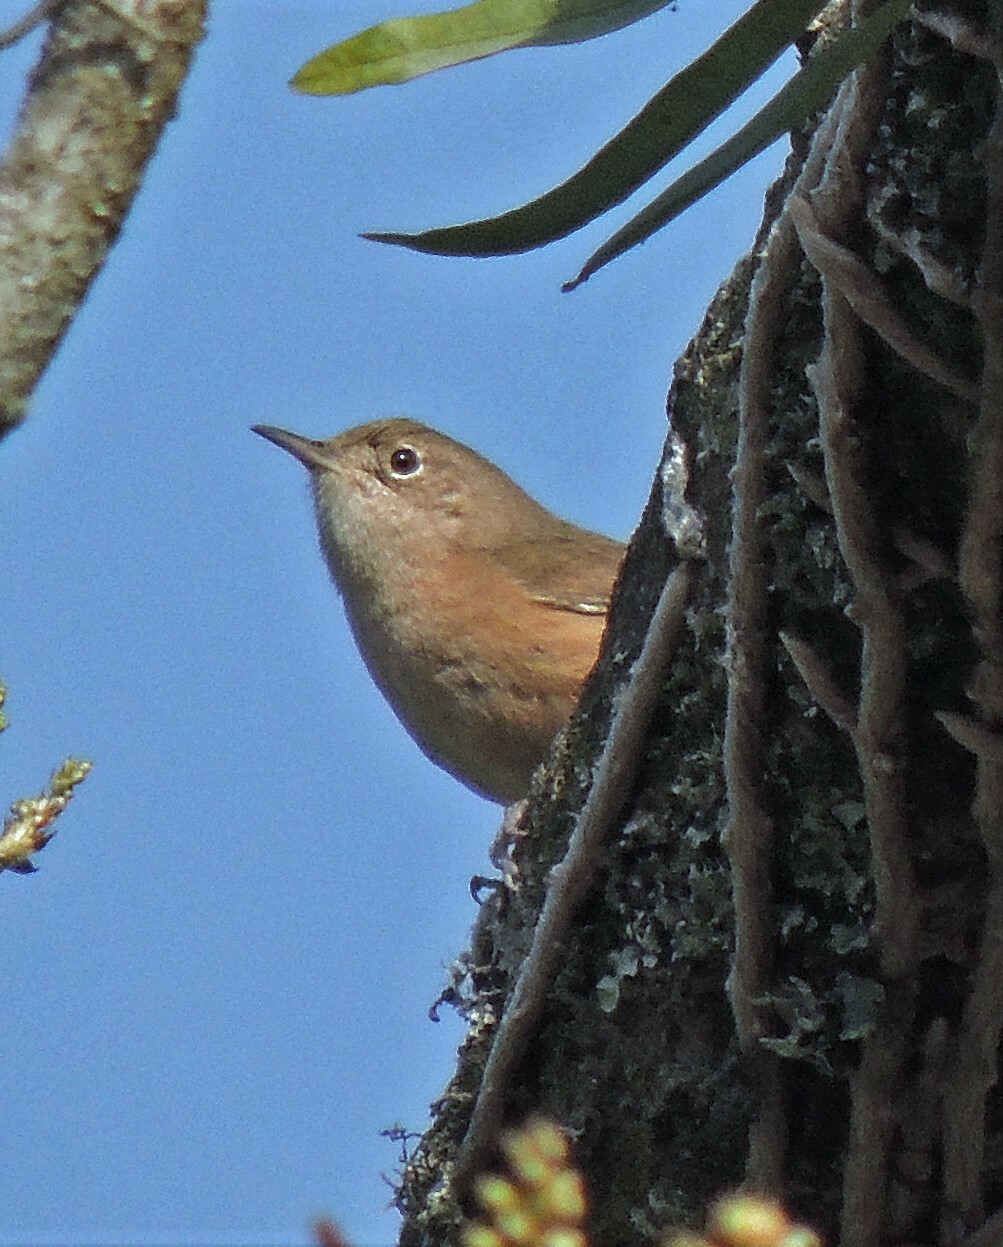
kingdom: Animalia
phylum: Chordata
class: Aves
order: Passeriformes
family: Troglodytidae
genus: Troglodytes
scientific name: Troglodytes aedon
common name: House wren
